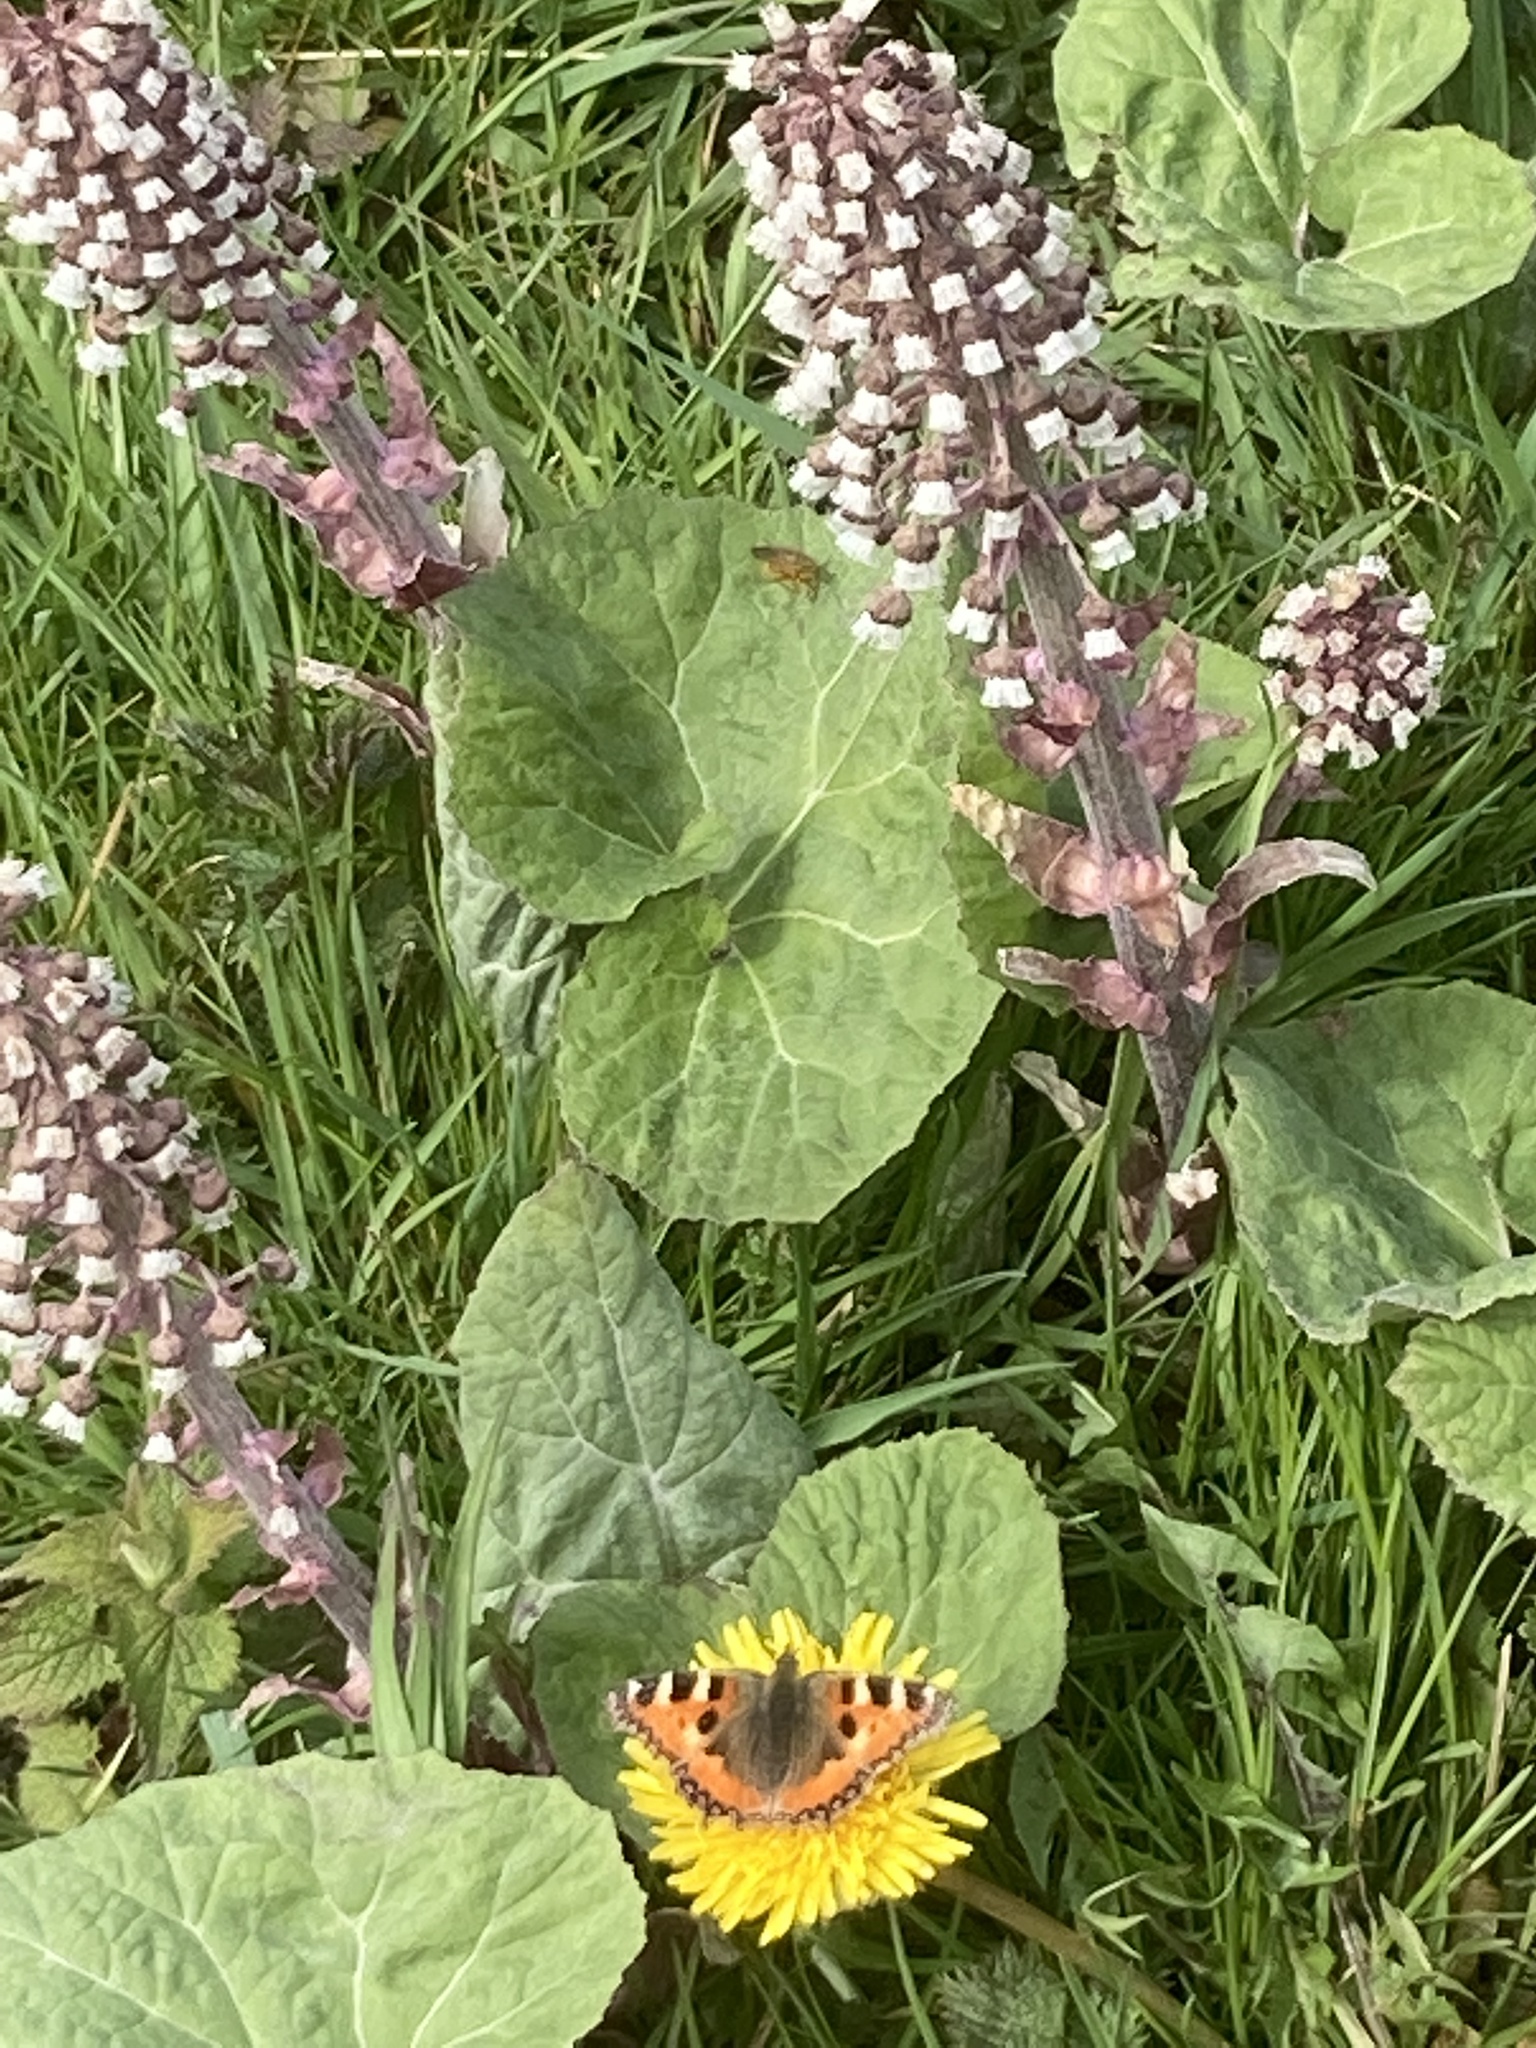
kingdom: Animalia
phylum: Arthropoda
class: Insecta
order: Lepidoptera
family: Nymphalidae
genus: Aglais
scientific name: Aglais urticae
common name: Small tortoiseshell
